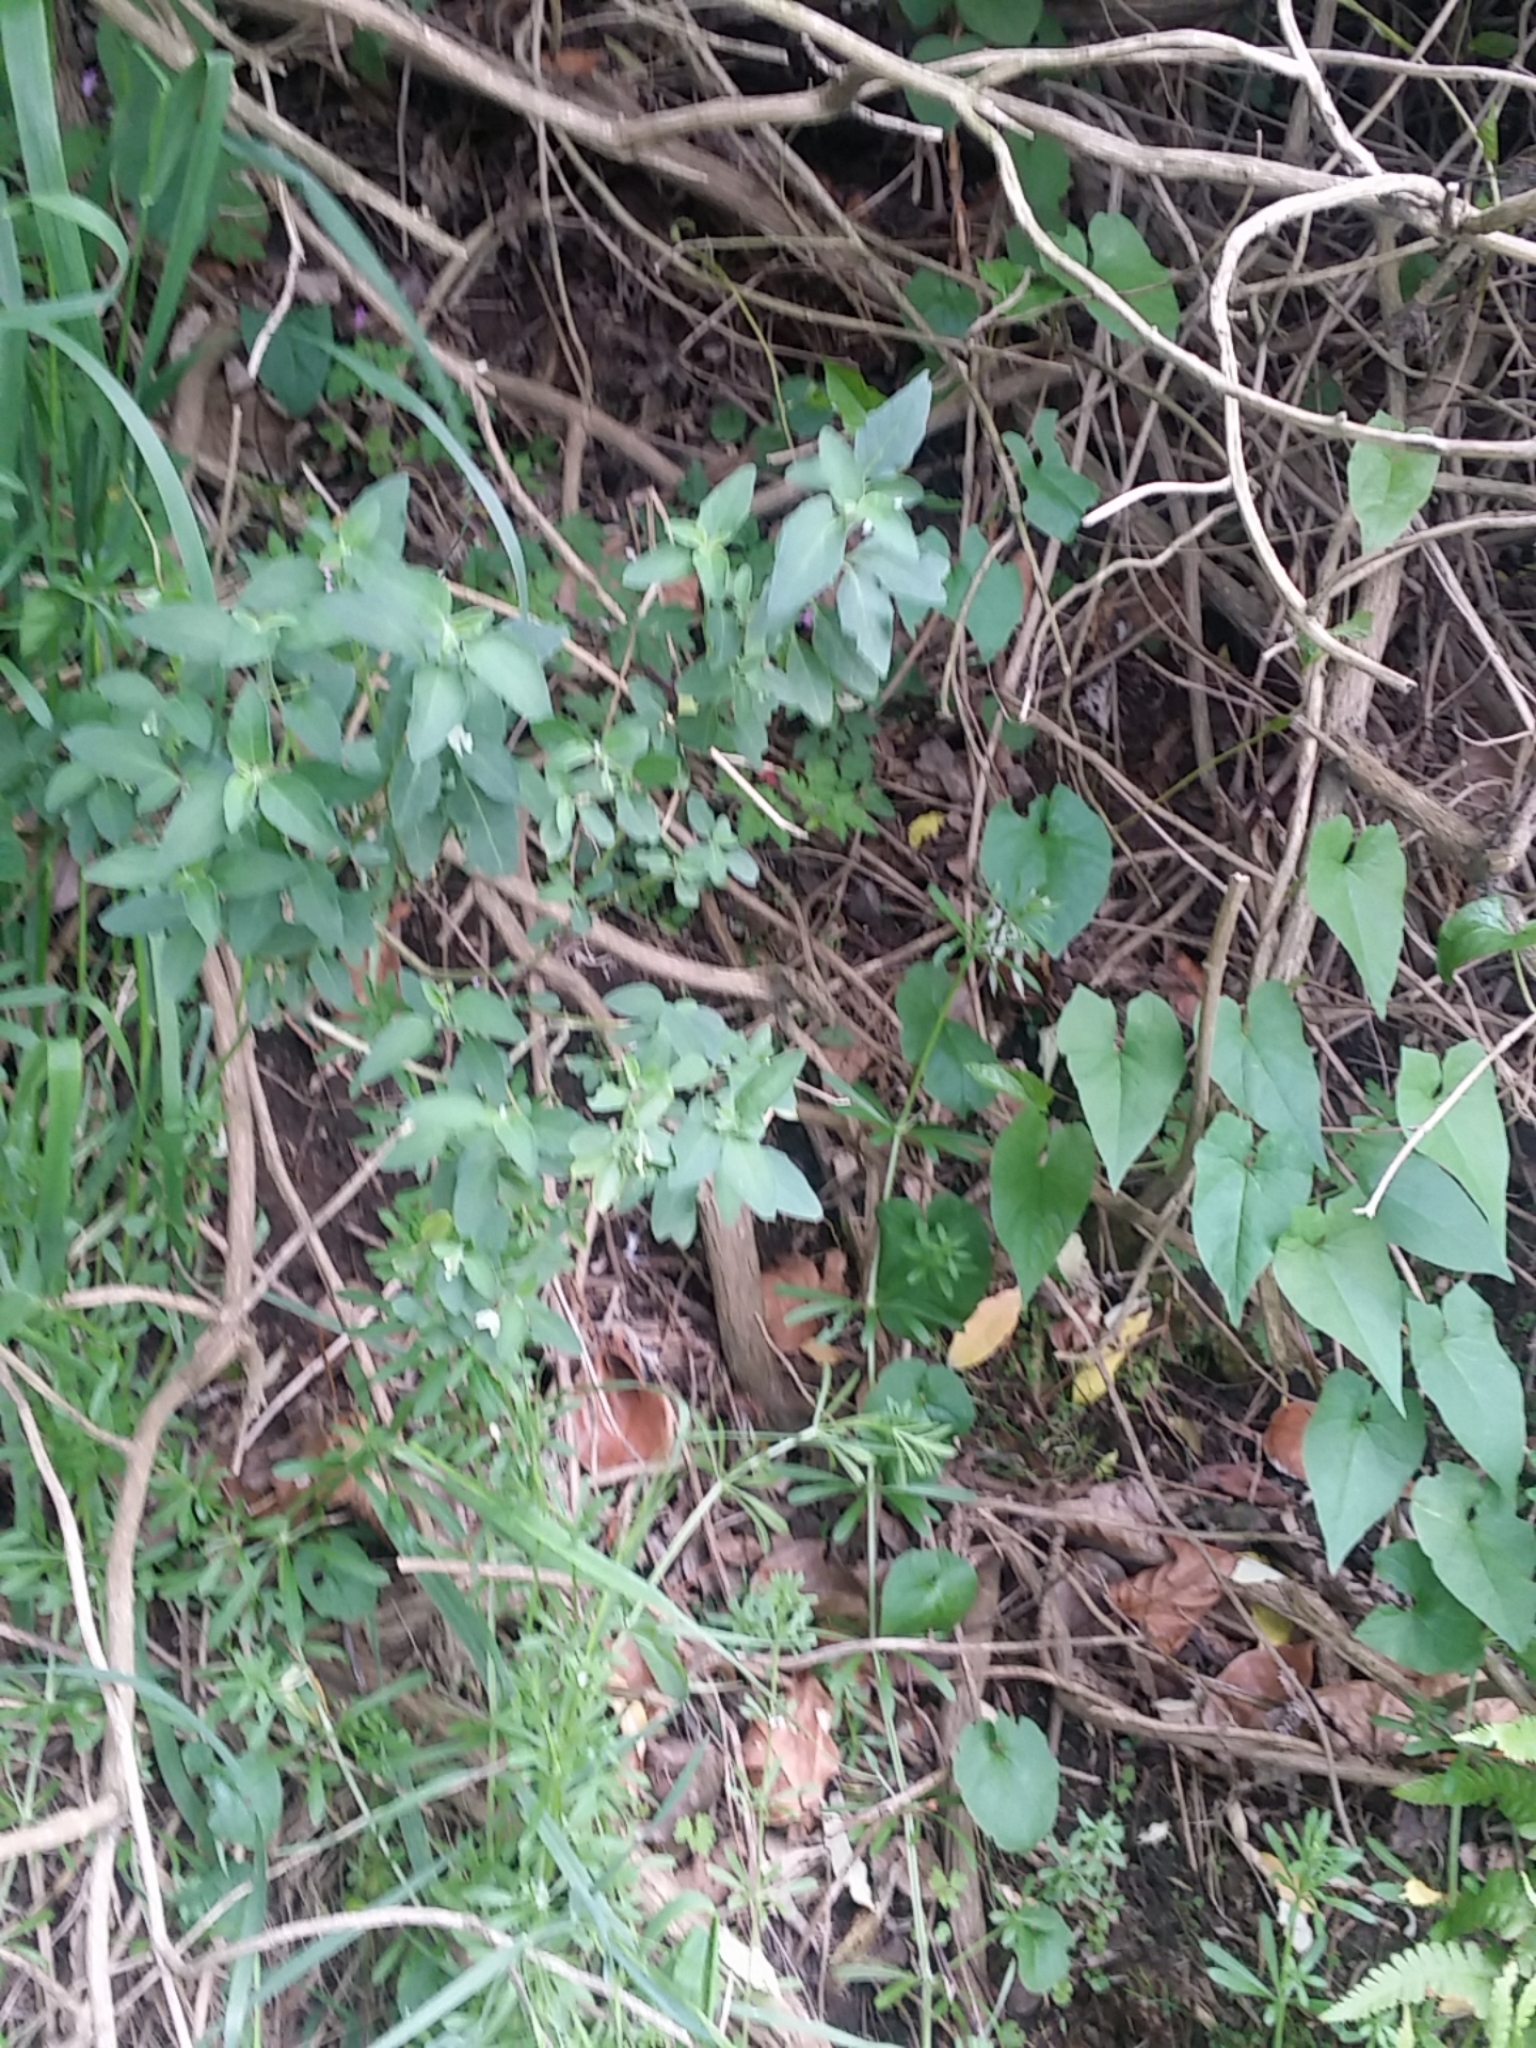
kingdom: Plantae
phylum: Tracheophyta
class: Magnoliopsida
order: Solanales
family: Solanaceae
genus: Solanum
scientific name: Solanum chenopodioides
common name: Tall nightshade
